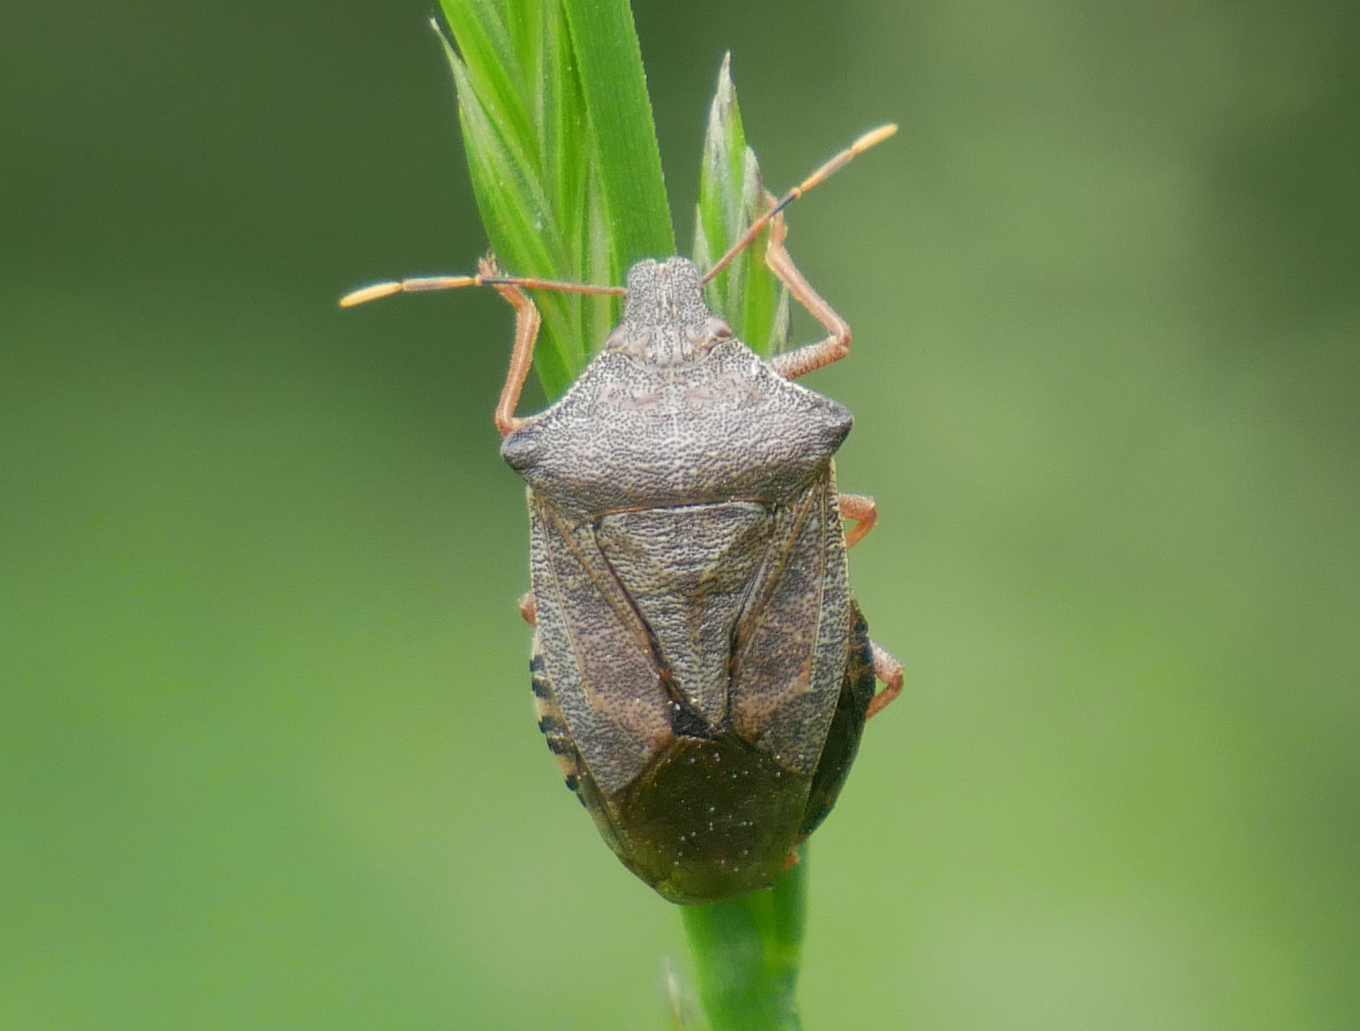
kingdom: Animalia
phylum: Arthropoda
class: Insecta
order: Hemiptera
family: Pentatomidae
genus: Arma
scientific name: Arma custos
